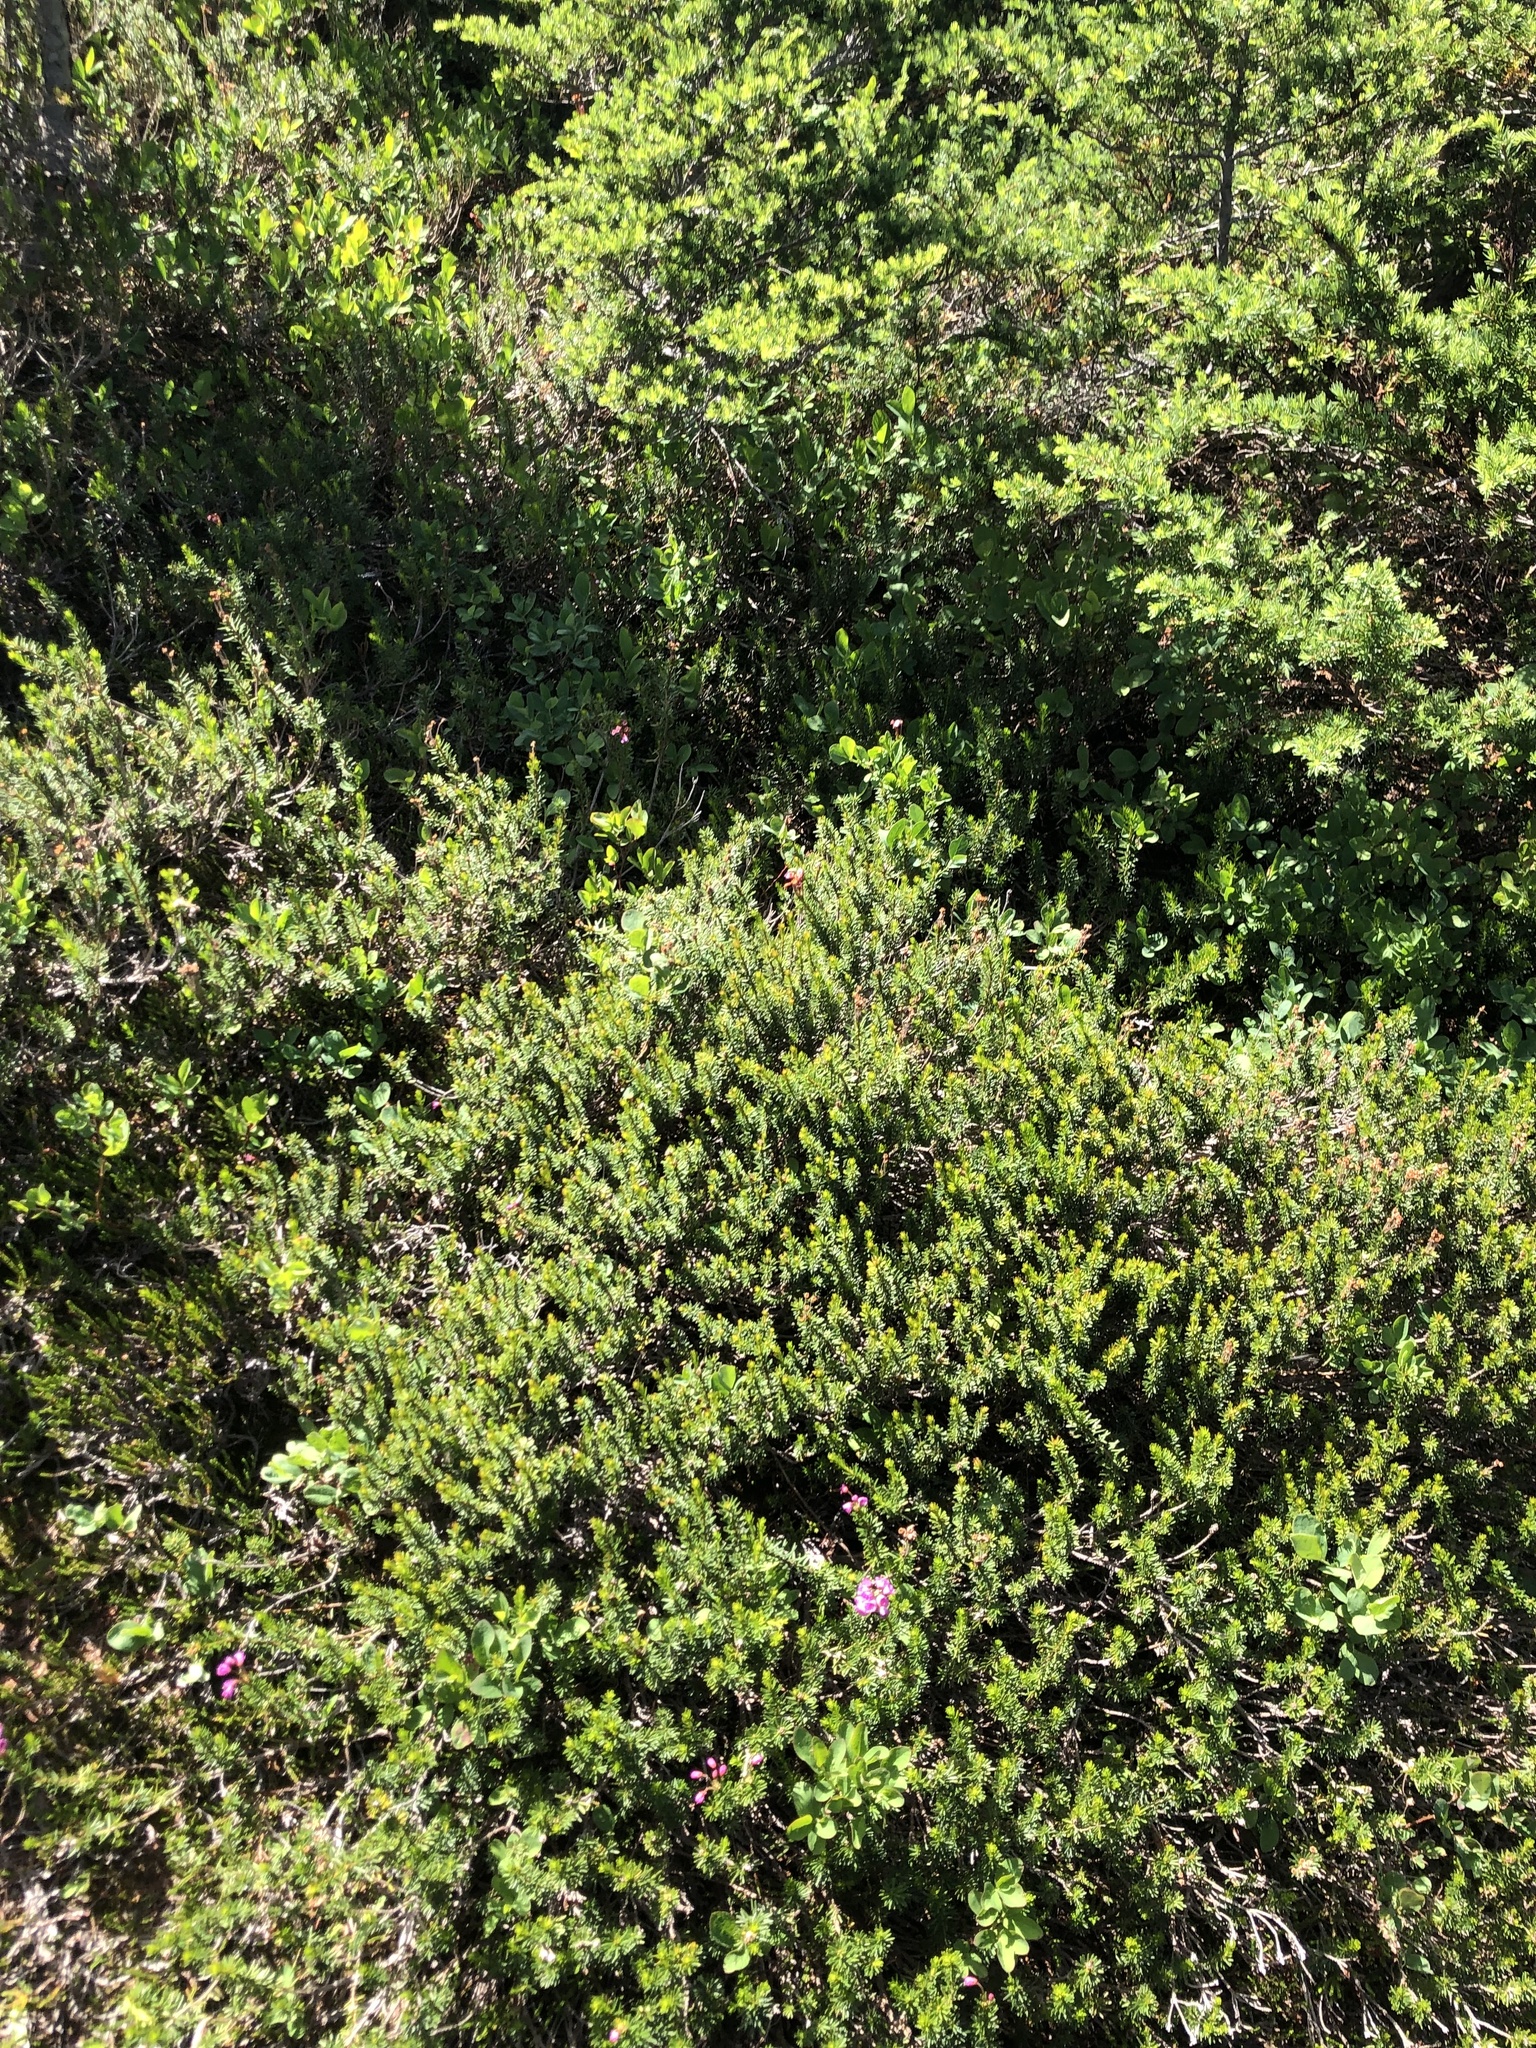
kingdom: Plantae
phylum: Tracheophyta
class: Magnoliopsida
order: Ericales
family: Ericaceae
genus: Phyllodoce
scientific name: Phyllodoce empetriformis
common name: Pink mountain heather
